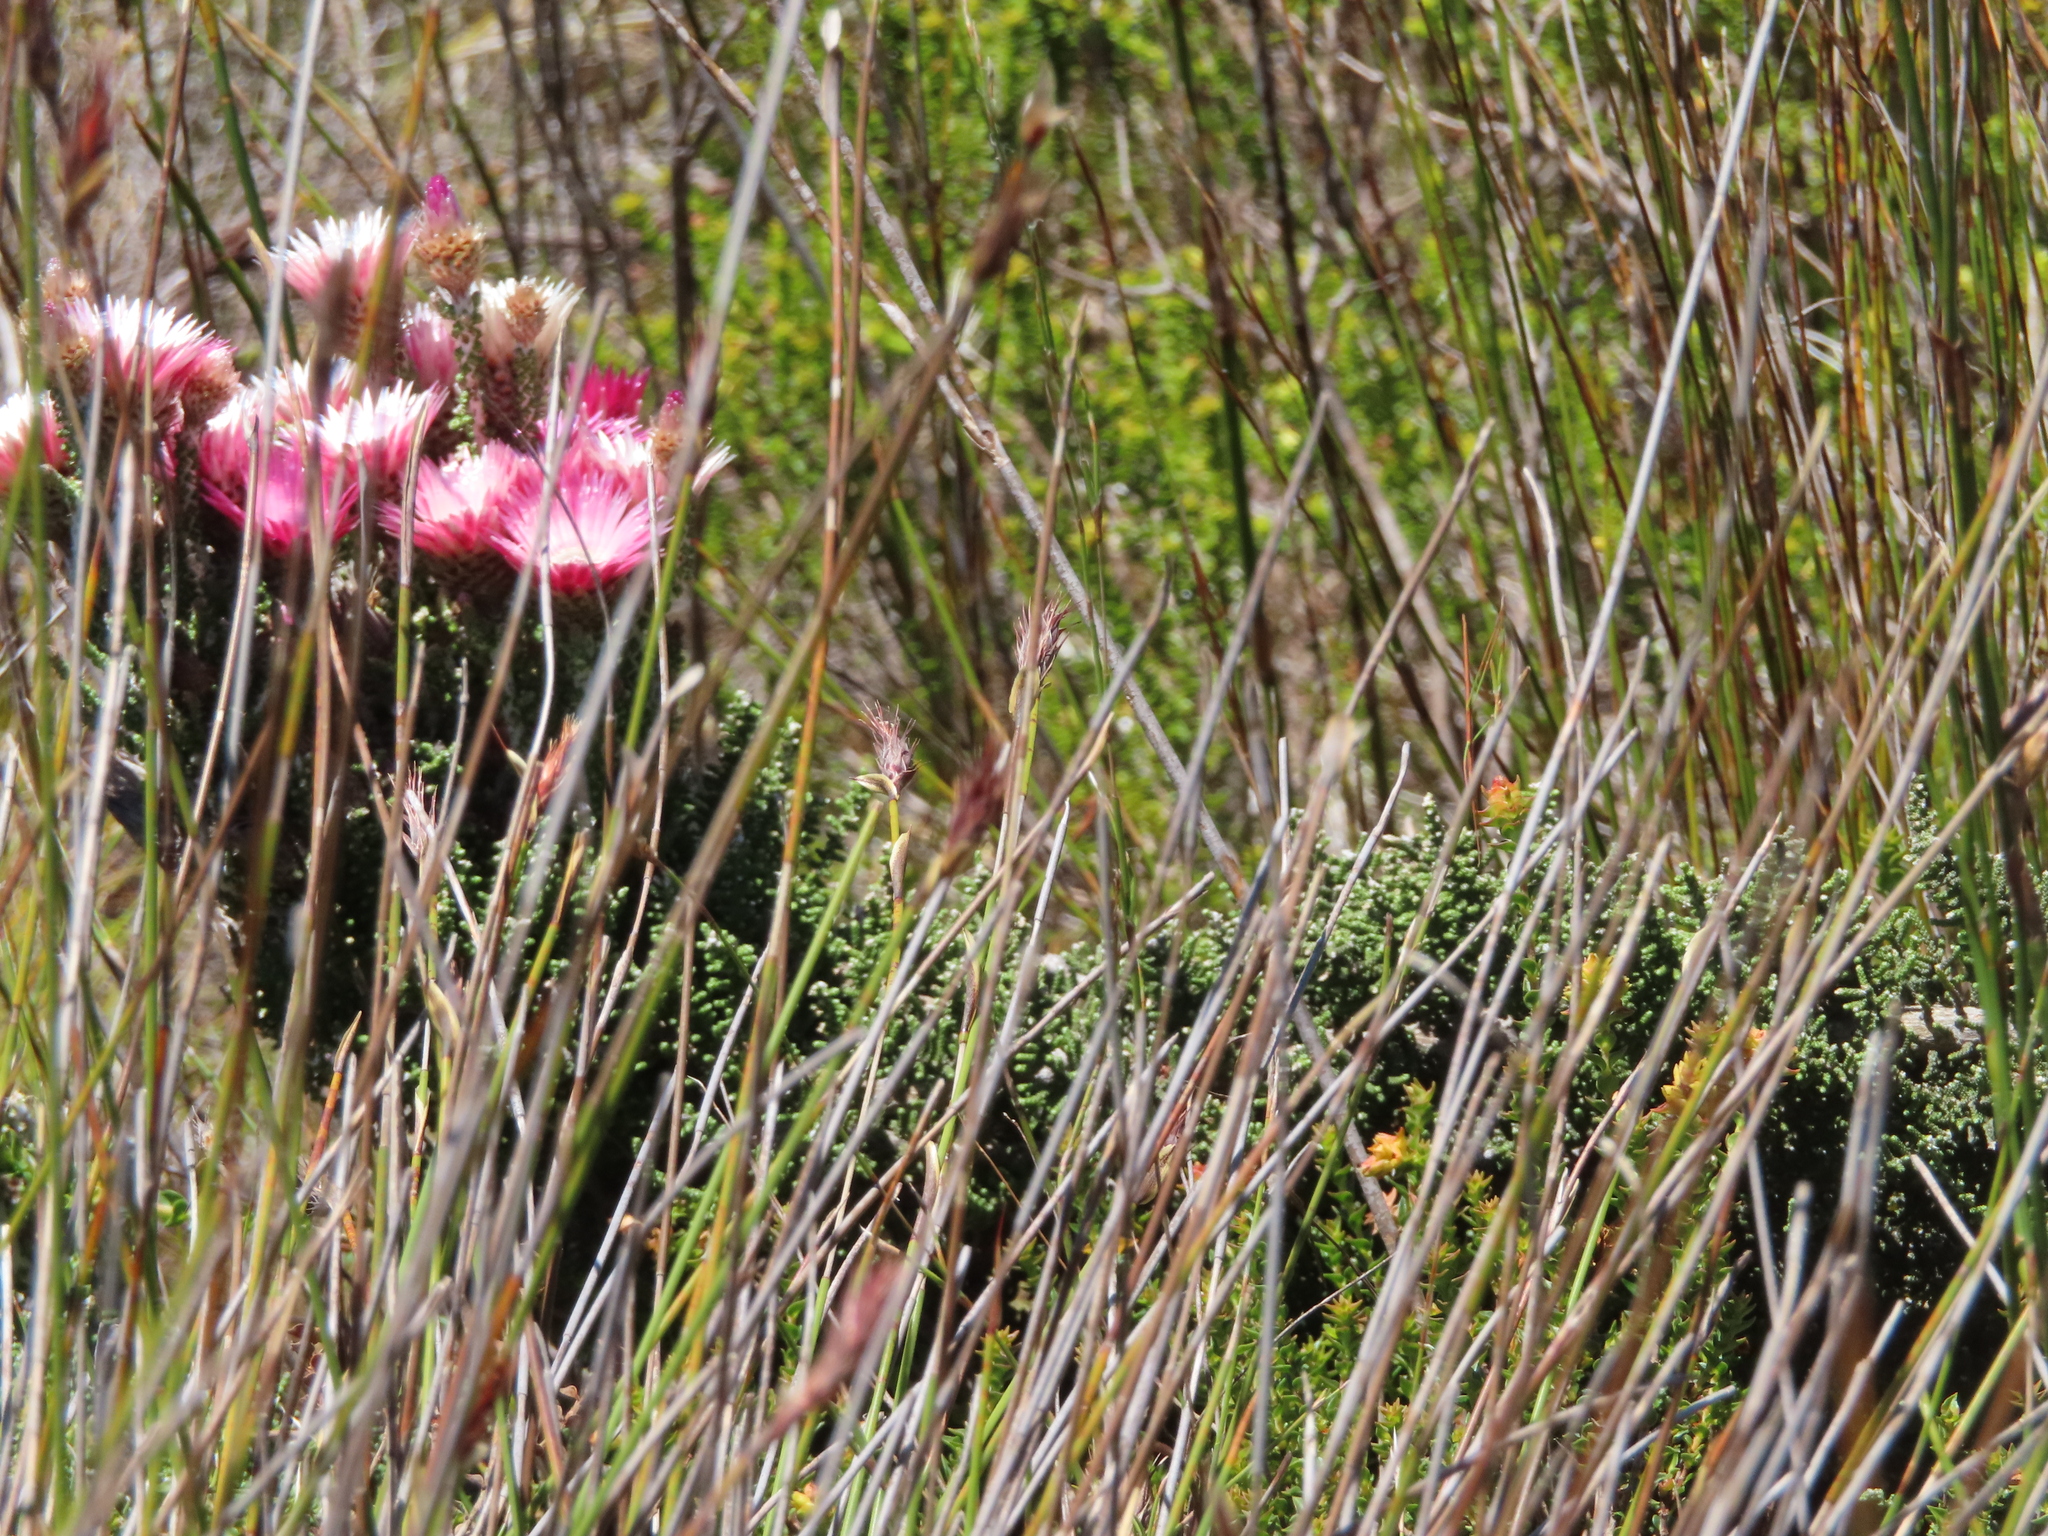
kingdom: Plantae
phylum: Tracheophyta
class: Magnoliopsida
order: Asterales
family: Asteraceae
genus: Phaenocoma
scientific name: Phaenocoma prolifera
